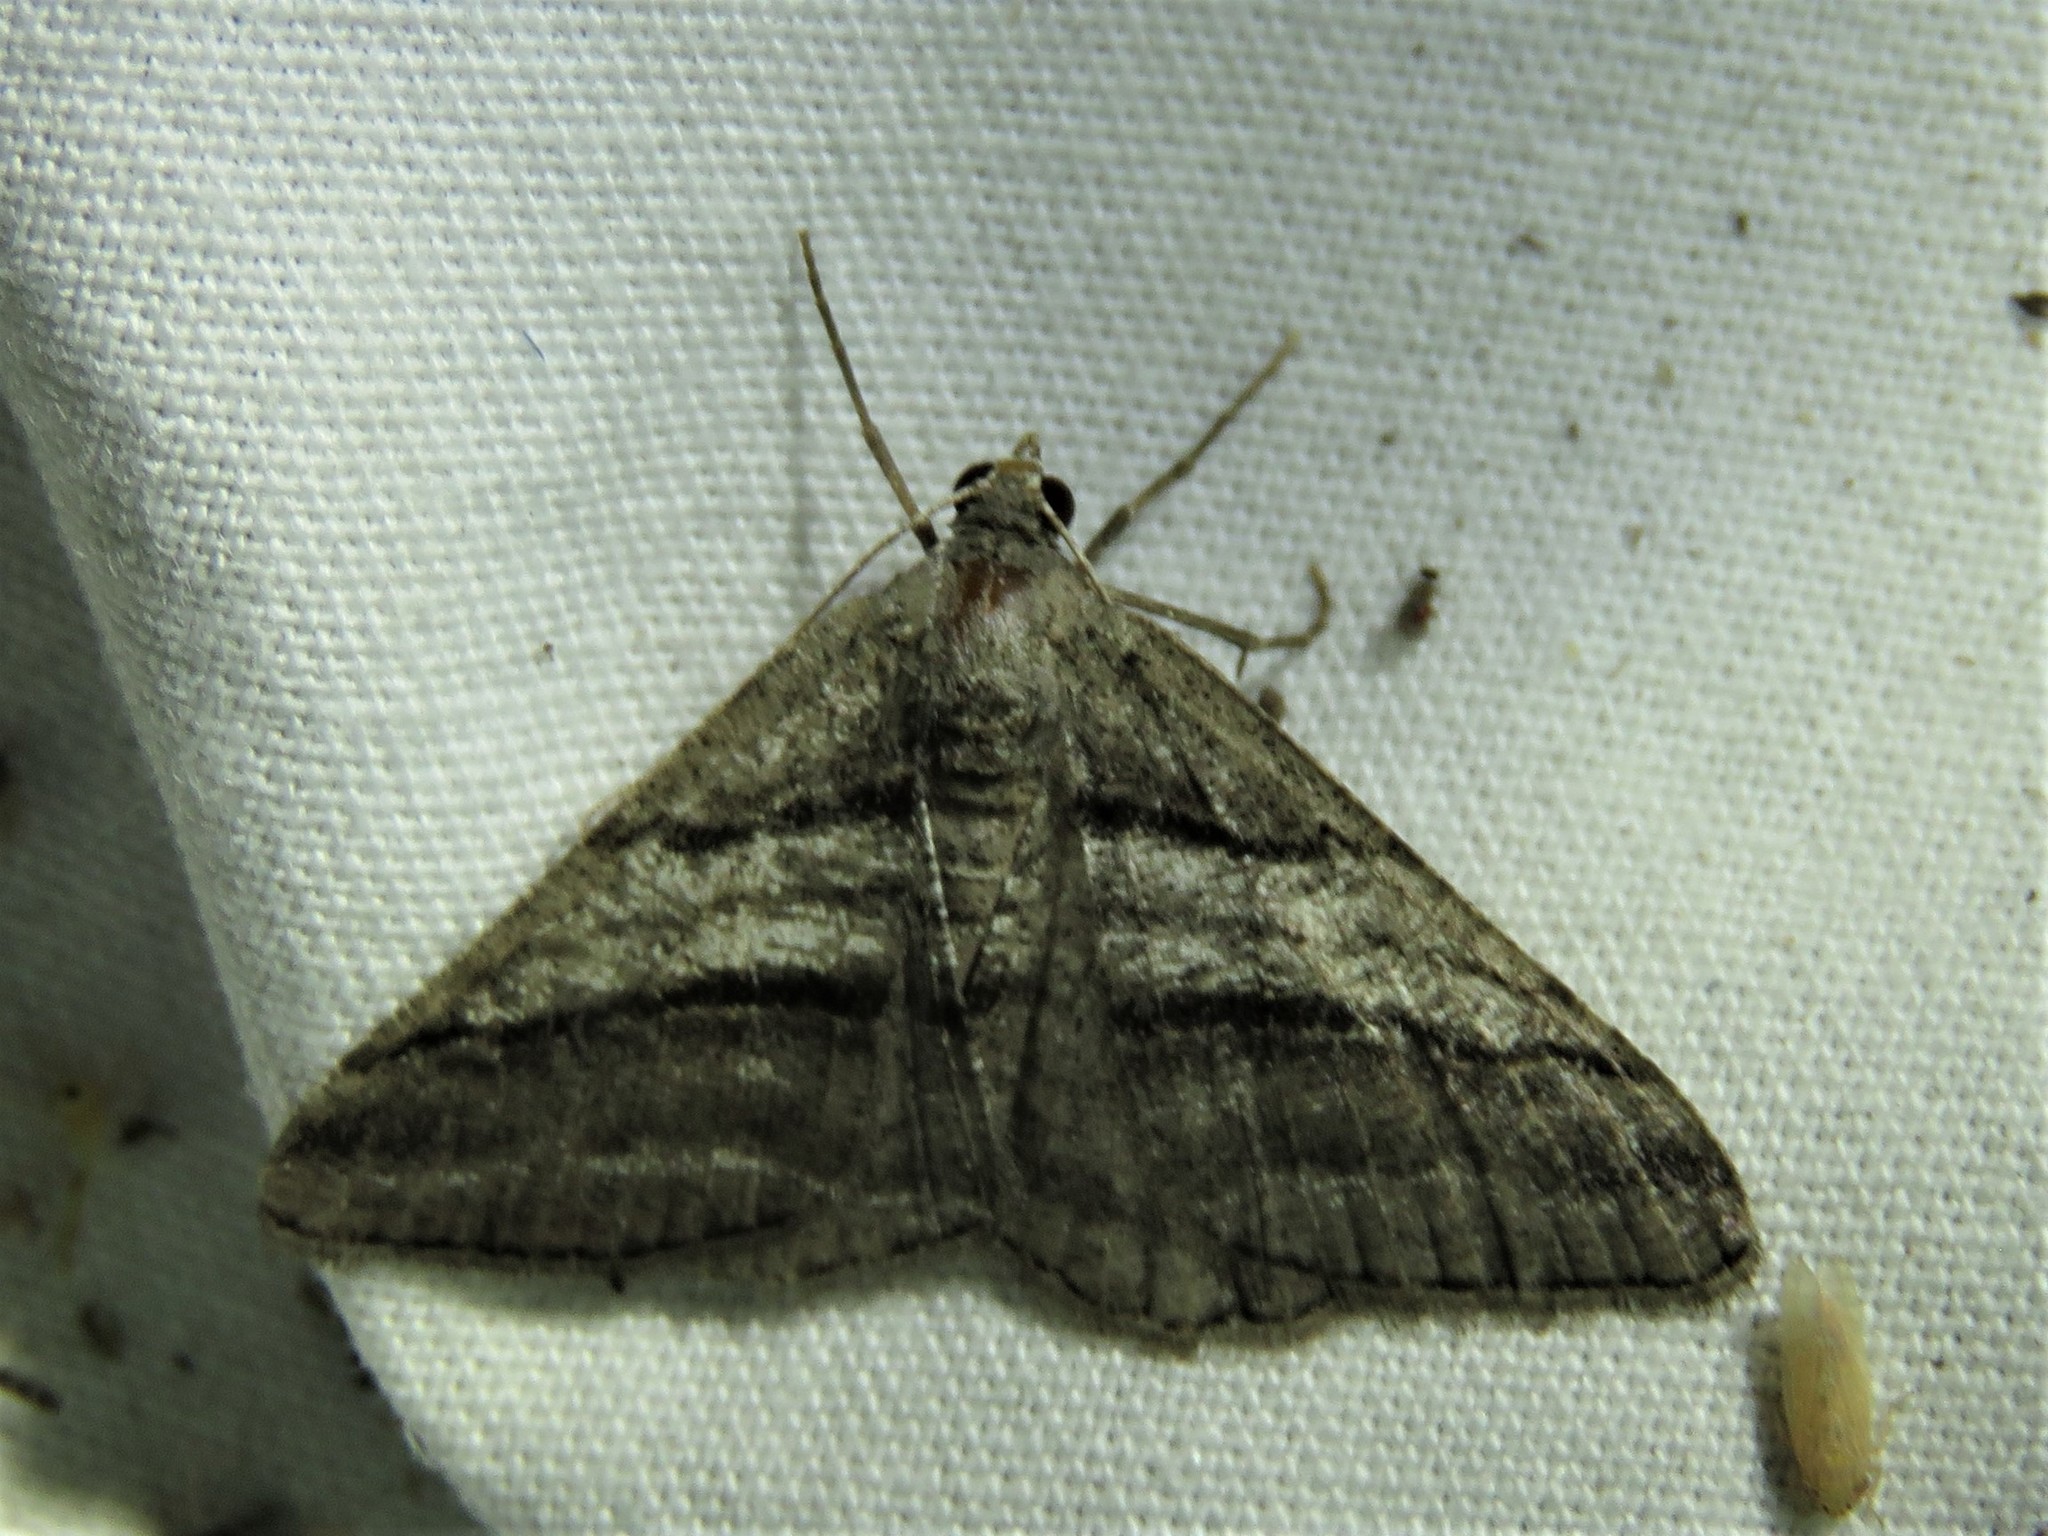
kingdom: Animalia
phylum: Arthropoda
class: Insecta
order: Lepidoptera
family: Geometridae
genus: Digrammia
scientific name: Digrammia atrofasciata
